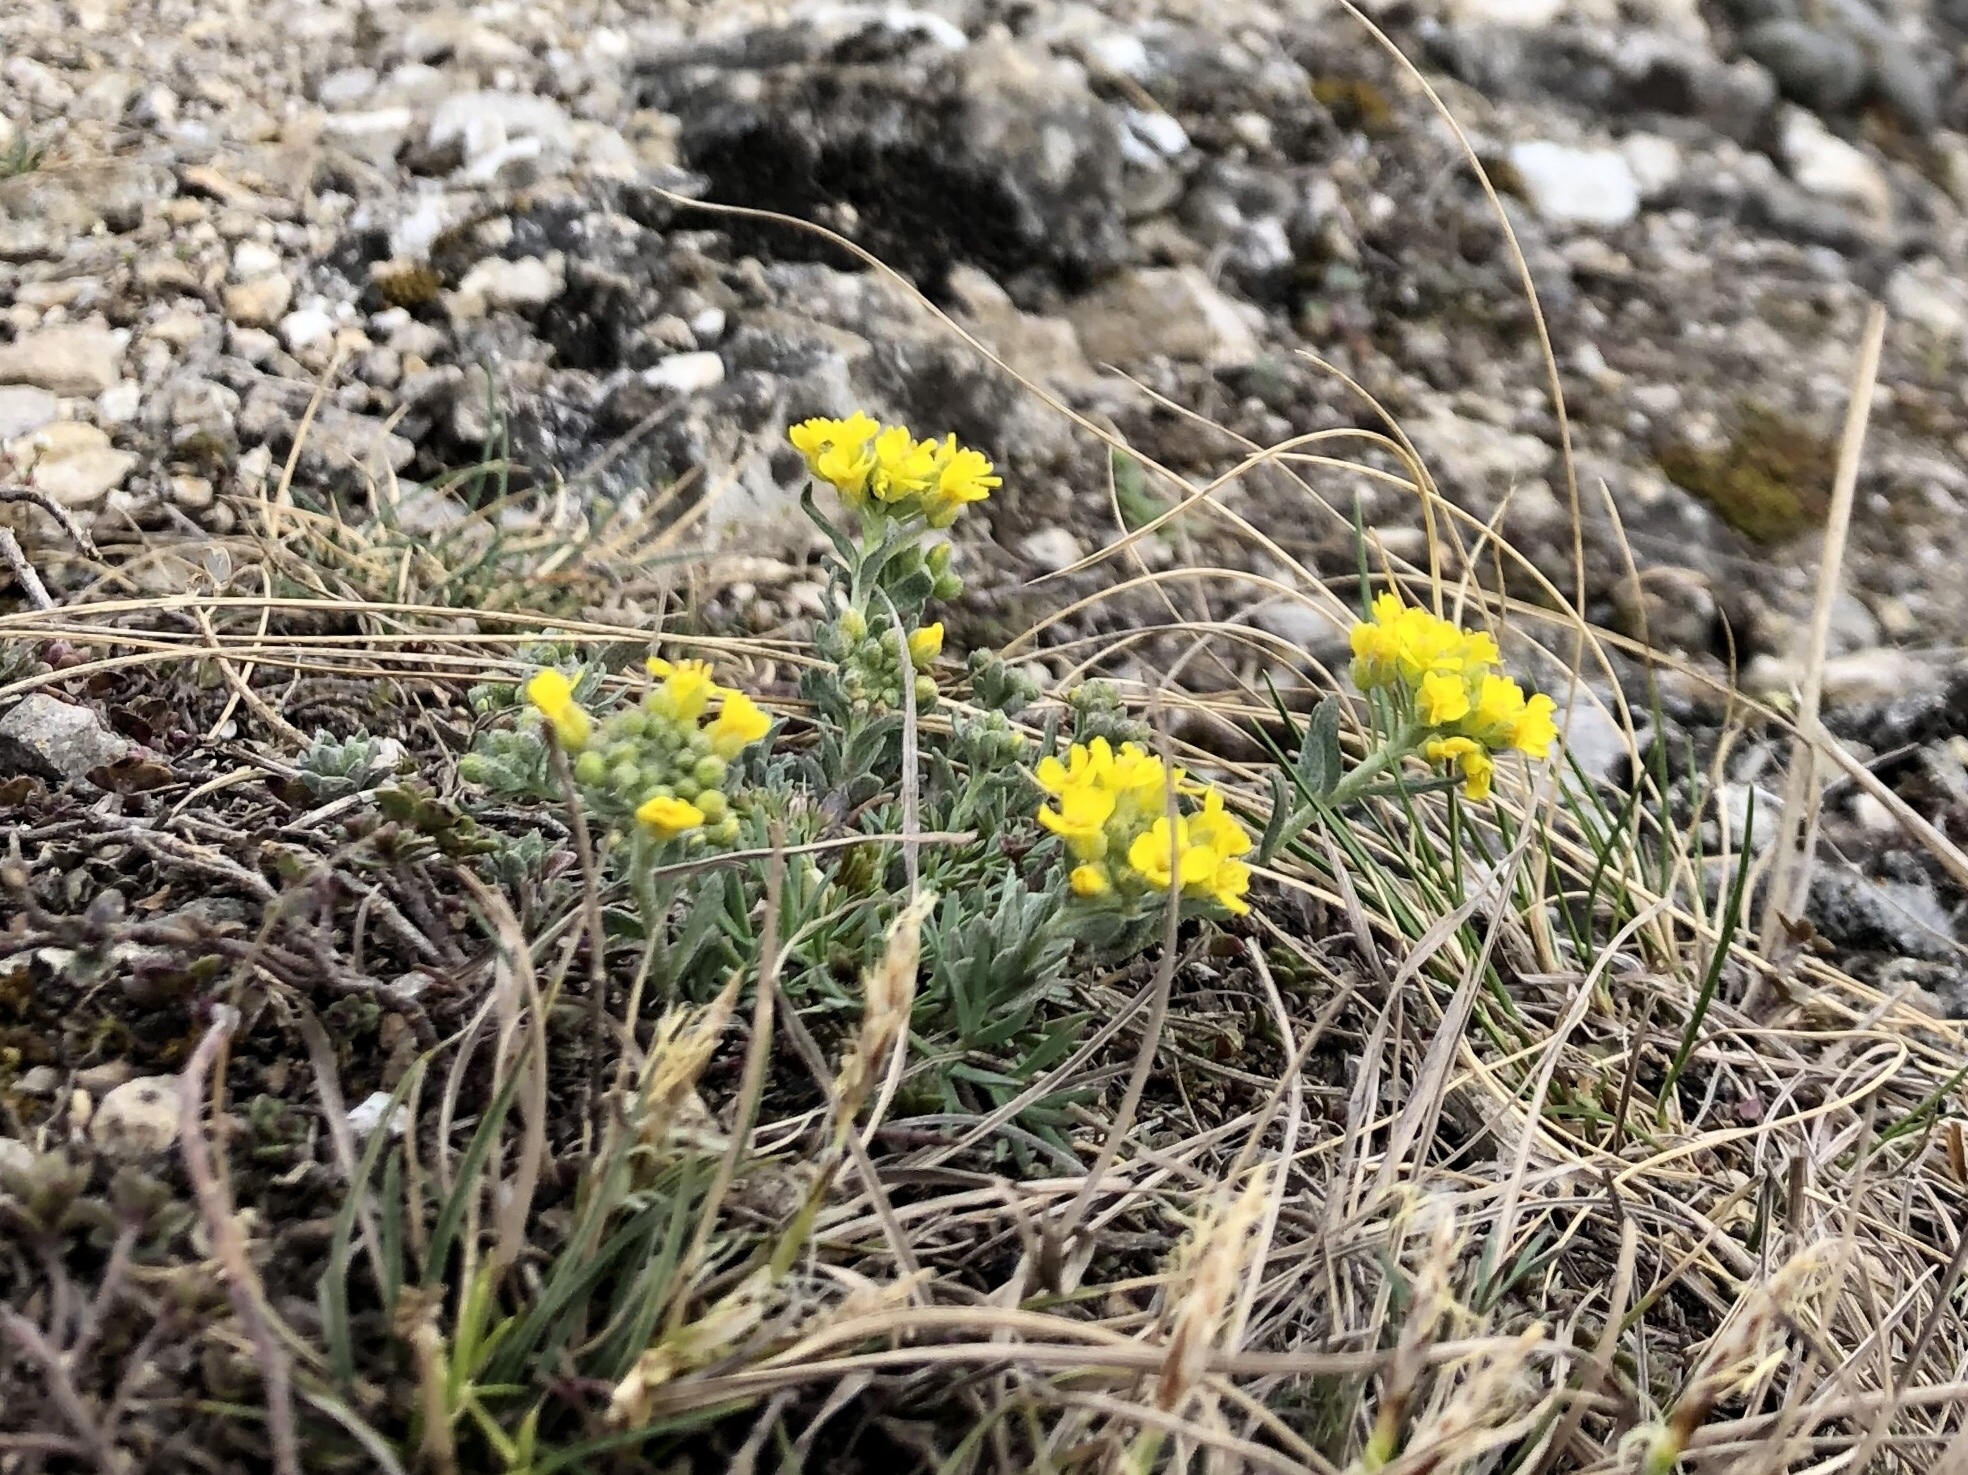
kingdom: Plantae
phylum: Tracheophyta
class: Magnoliopsida
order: Brassicales
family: Brassicaceae
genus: Alyssum
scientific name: Alyssum gmelinii
